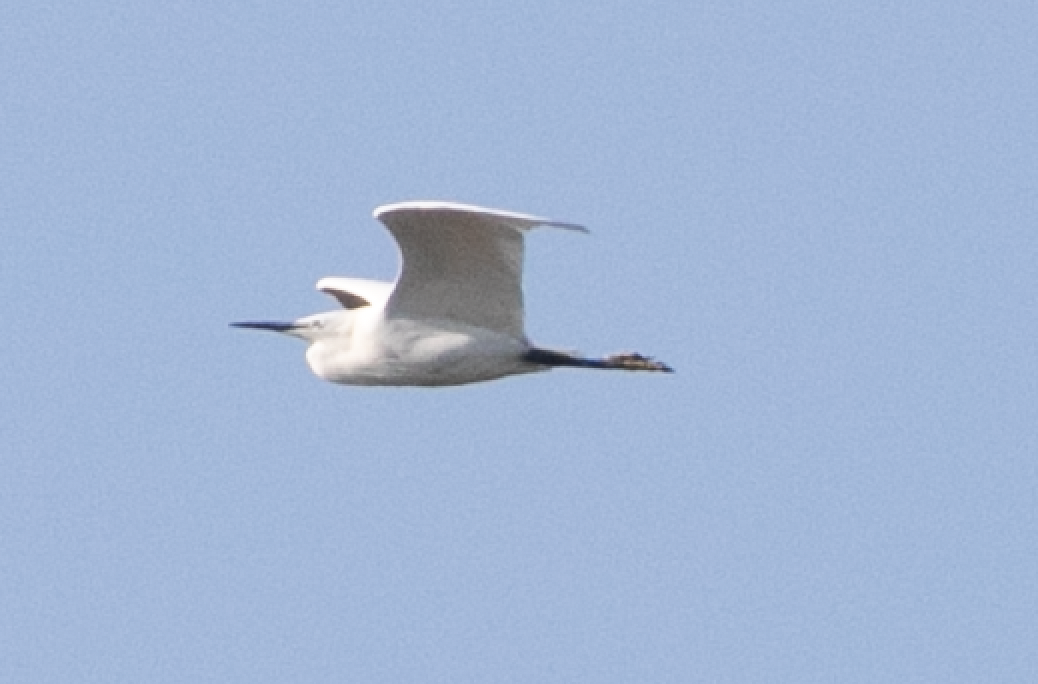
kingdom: Animalia
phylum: Chordata
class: Aves
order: Pelecaniformes
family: Ardeidae
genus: Egretta
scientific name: Egretta garzetta
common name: Little egret
